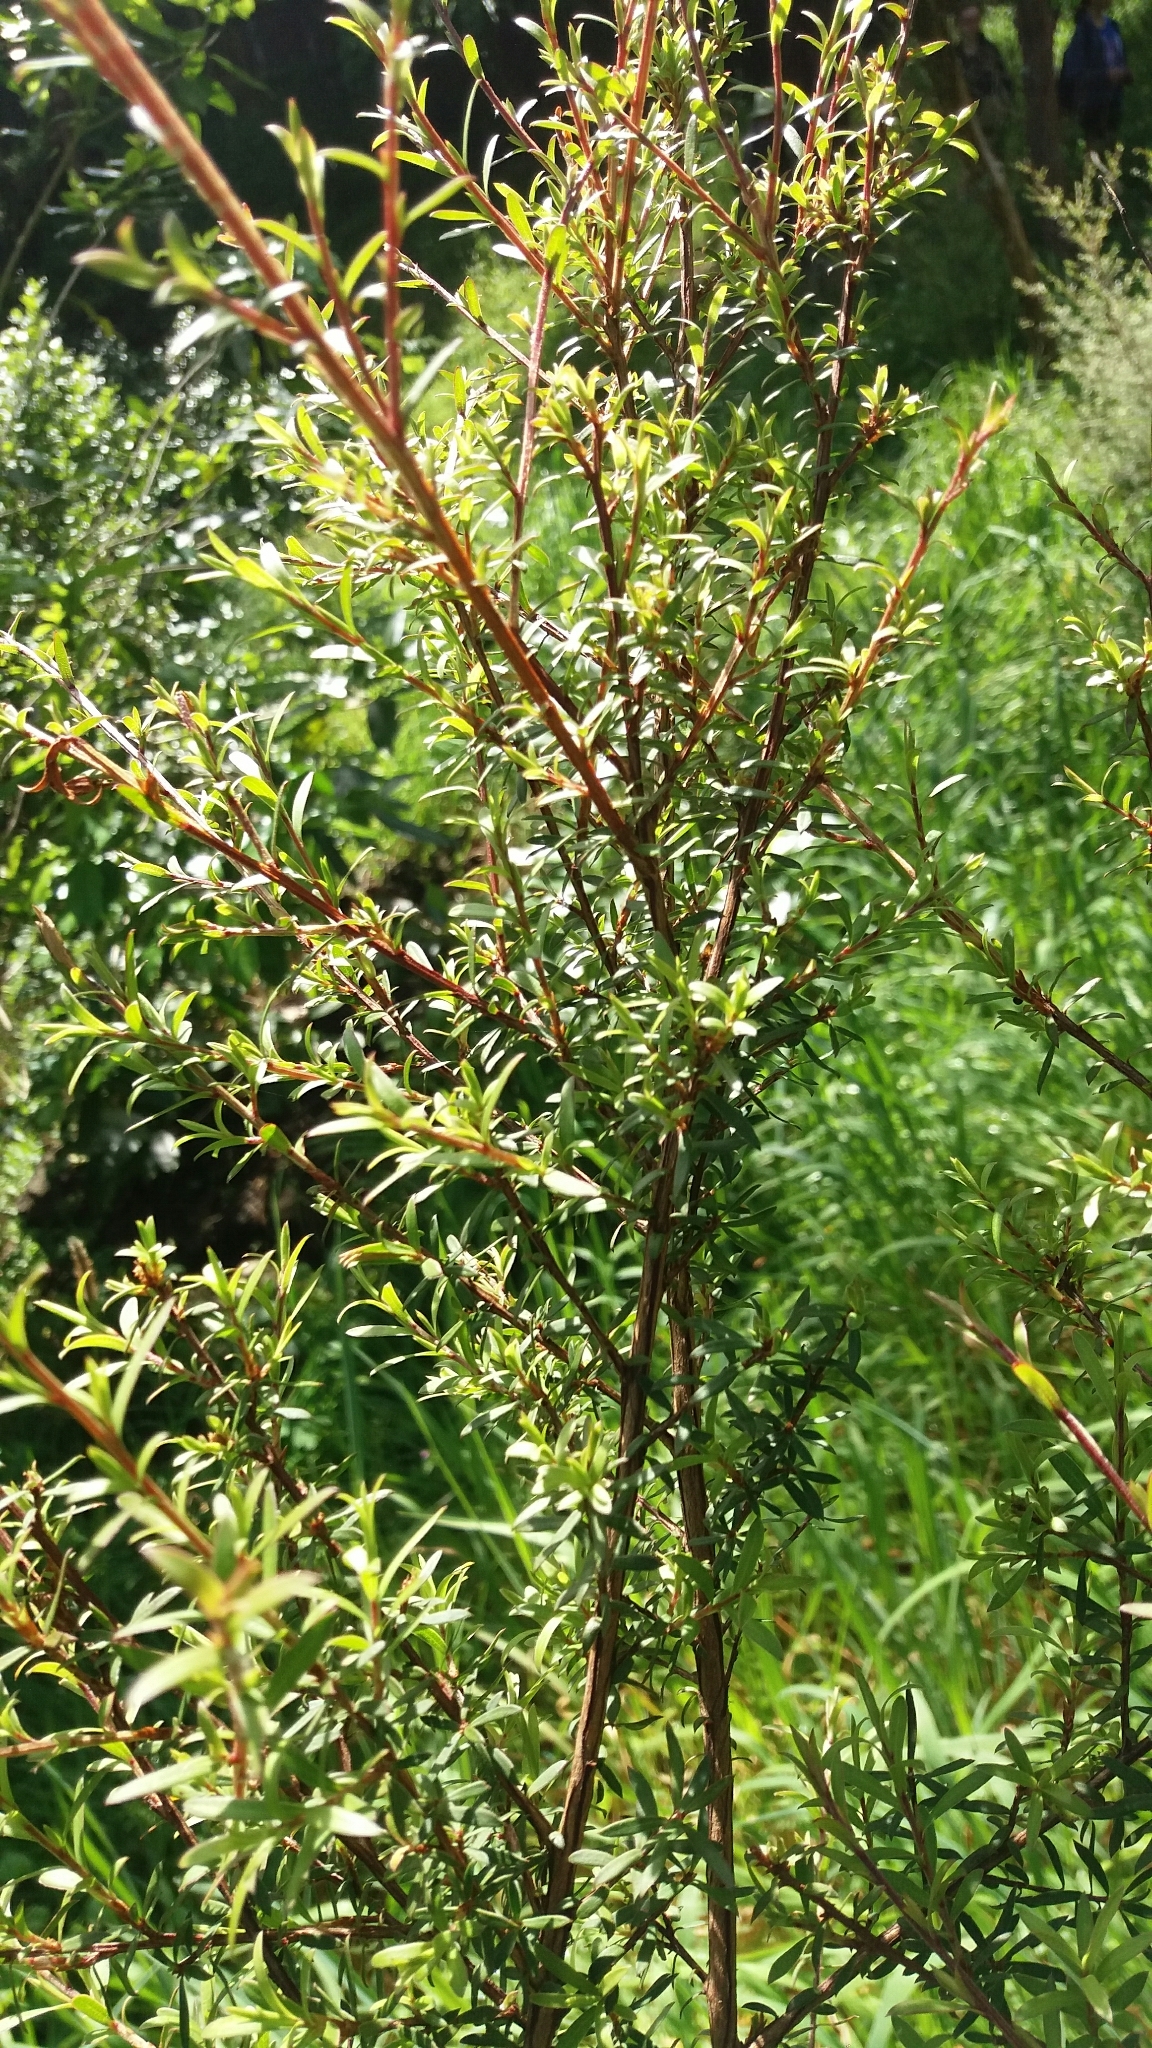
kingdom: Plantae
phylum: Tracheophyta
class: Magnoliopsida
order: Myrtales
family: Myrtaceae
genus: Leptospermum
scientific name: Leptospermum scoparium
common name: Broom tea-tree
